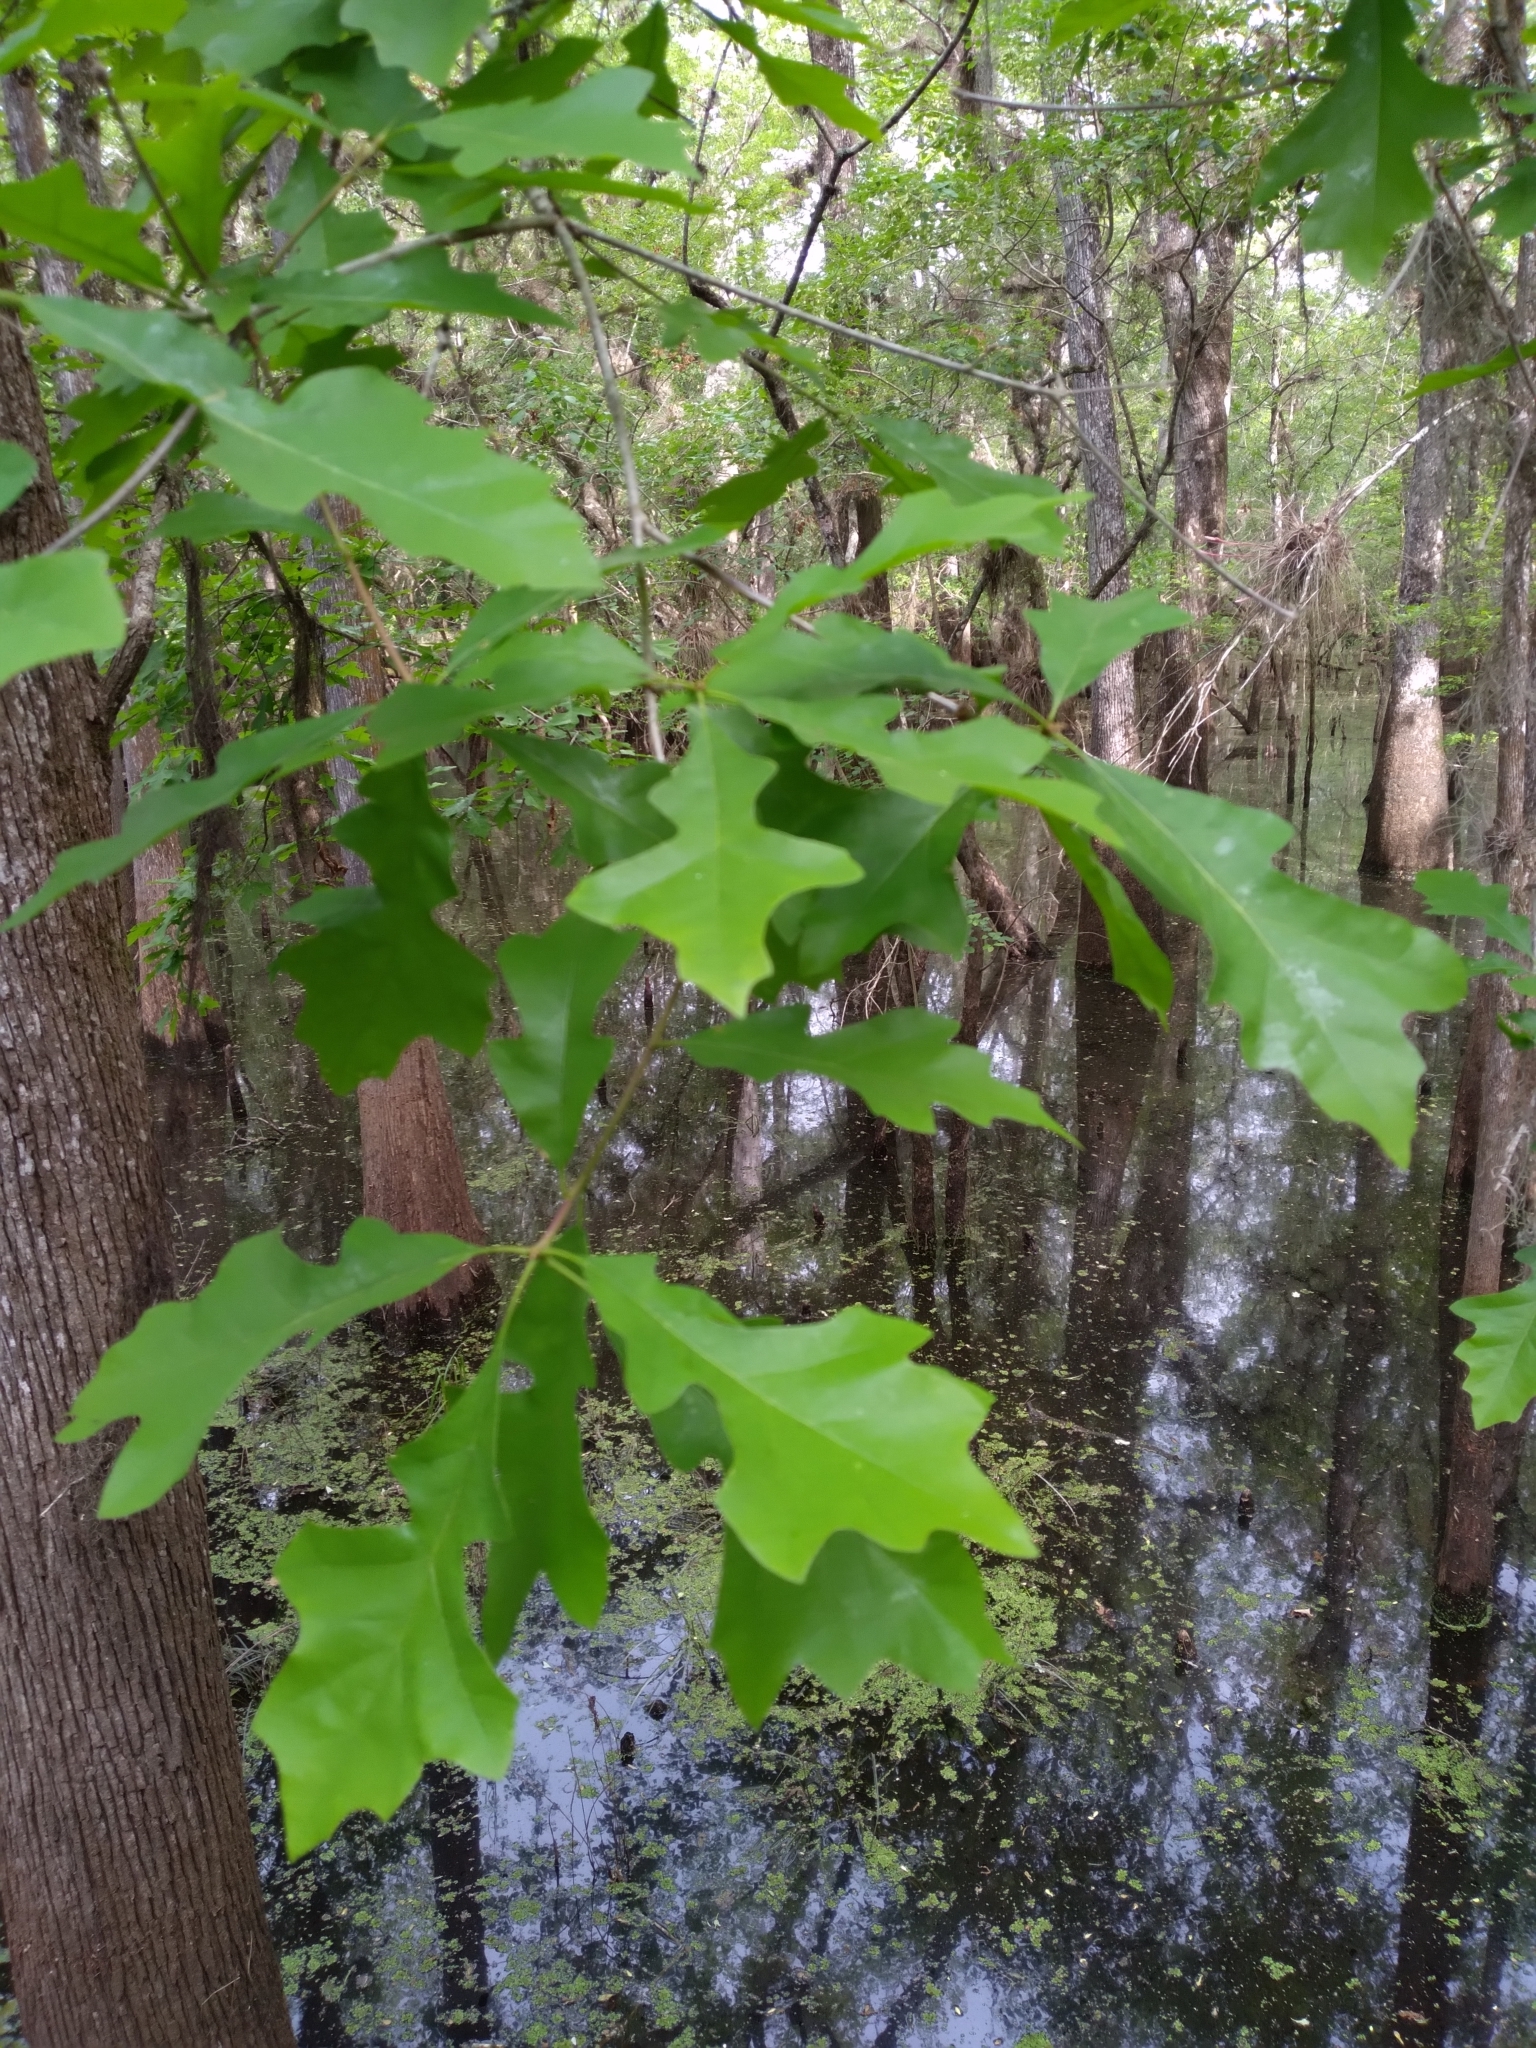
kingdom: Plantae
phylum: Tracheophyta
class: Magnoliopsida
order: Fagales
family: Fagaceae
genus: Quercus
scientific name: Quercus lyrata
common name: Overcup oak
